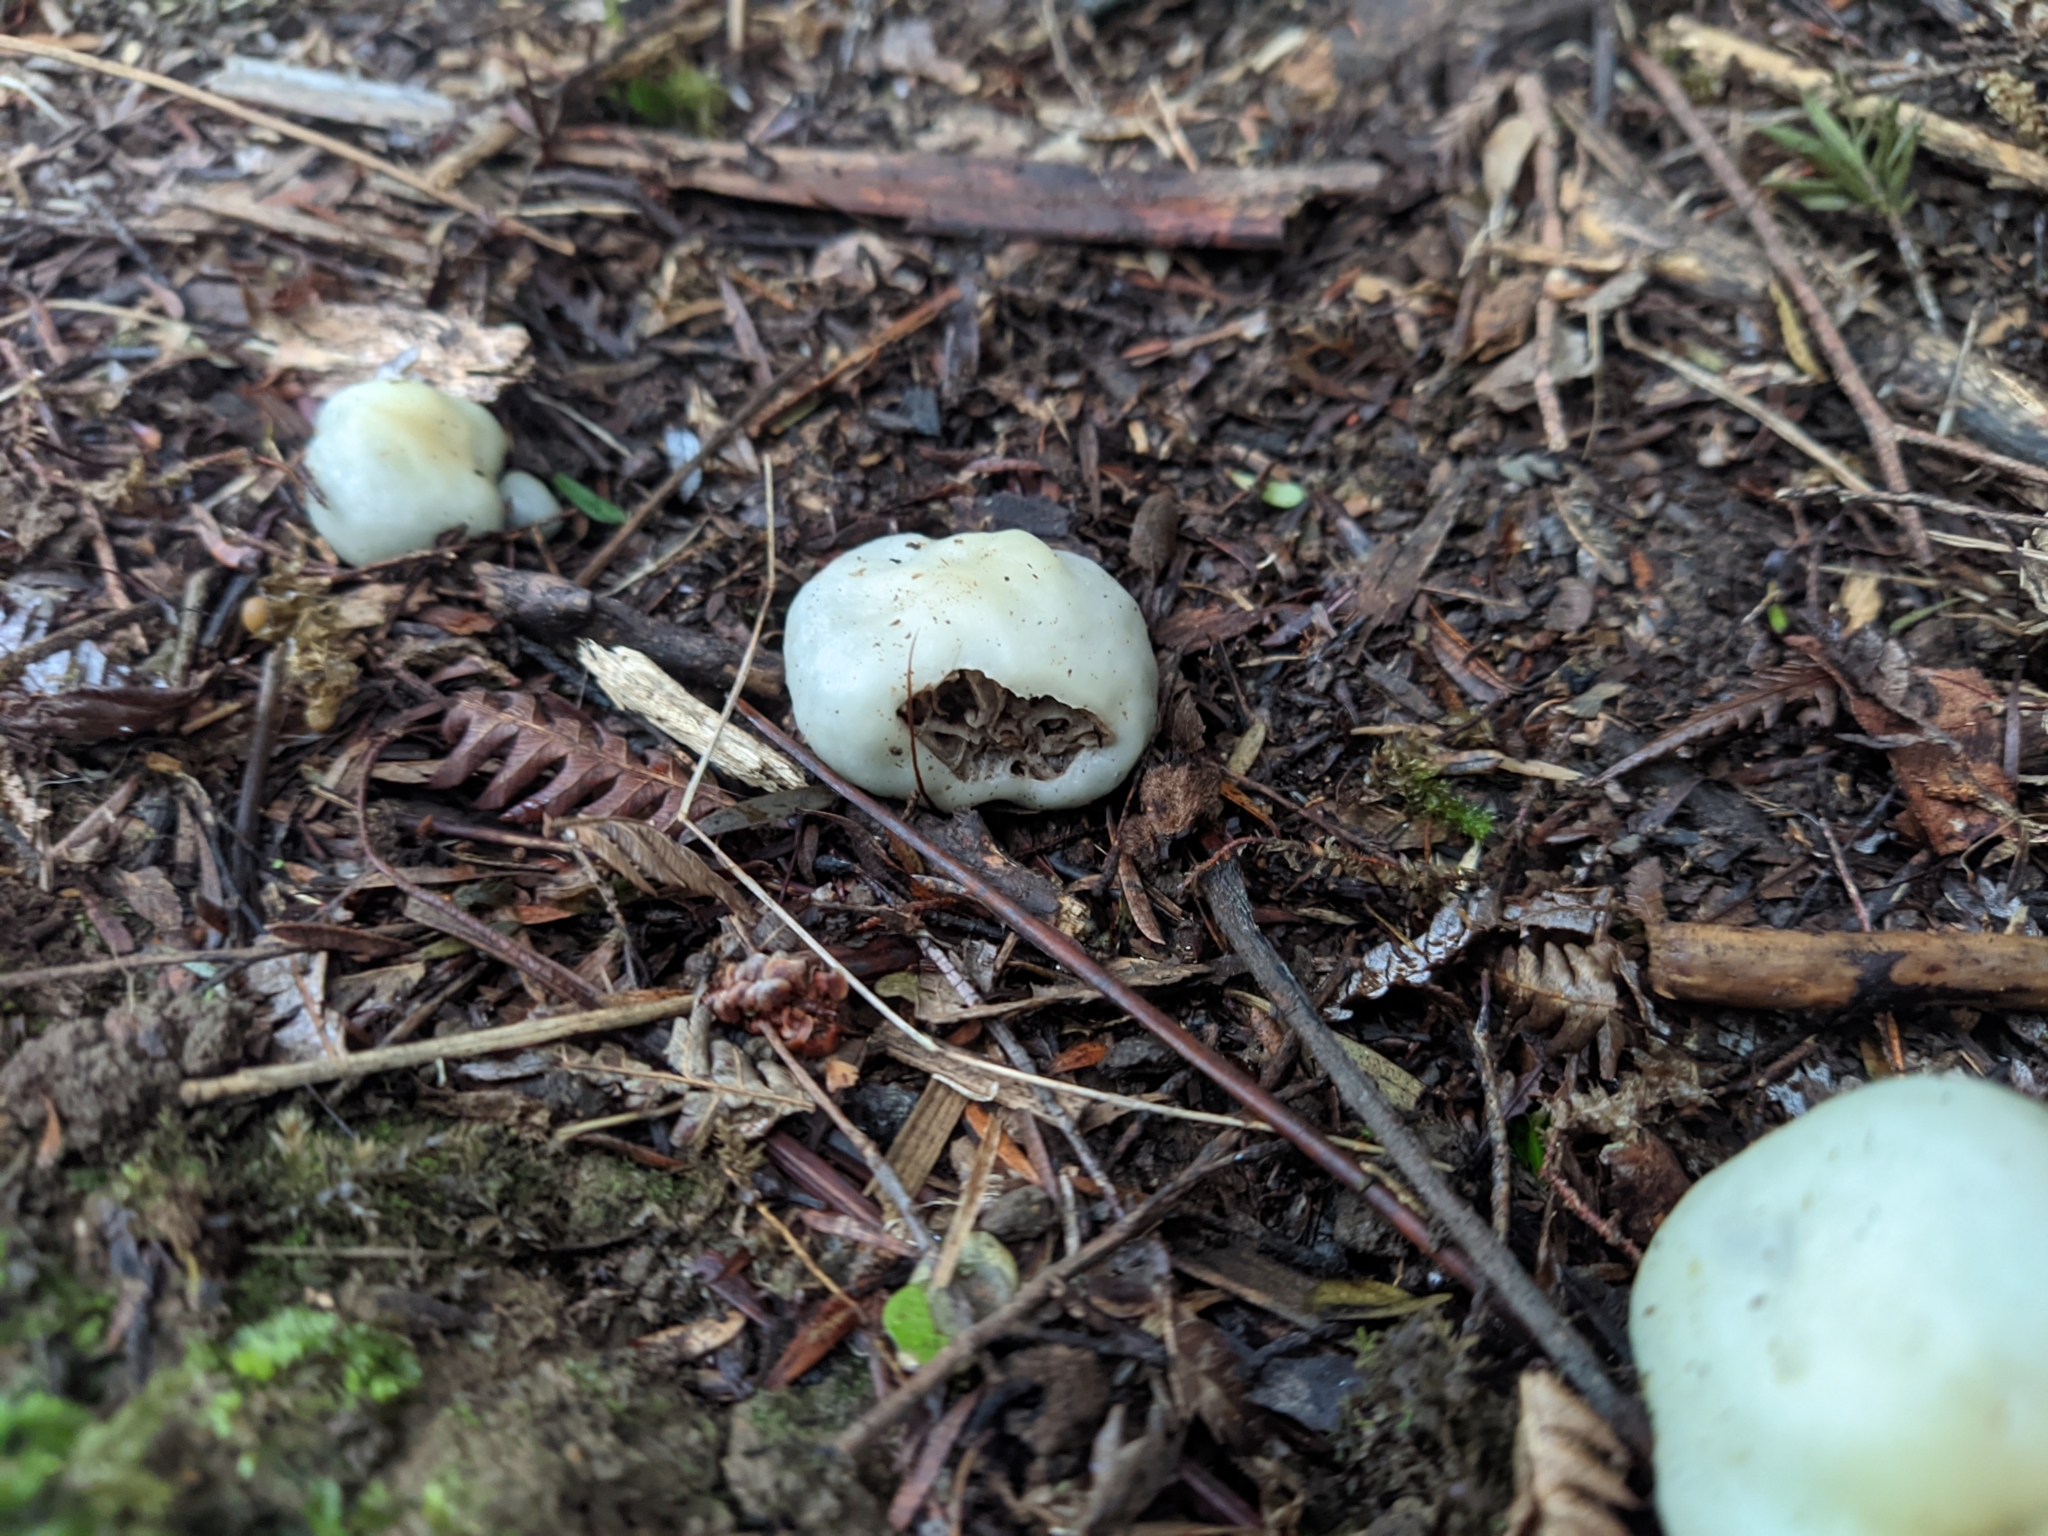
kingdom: Fungi
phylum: Basidiomycota
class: Agaricomycetes
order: Agaricales
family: Hymenogastraceae
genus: Psilocybe
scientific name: Psilocybe weraroa
